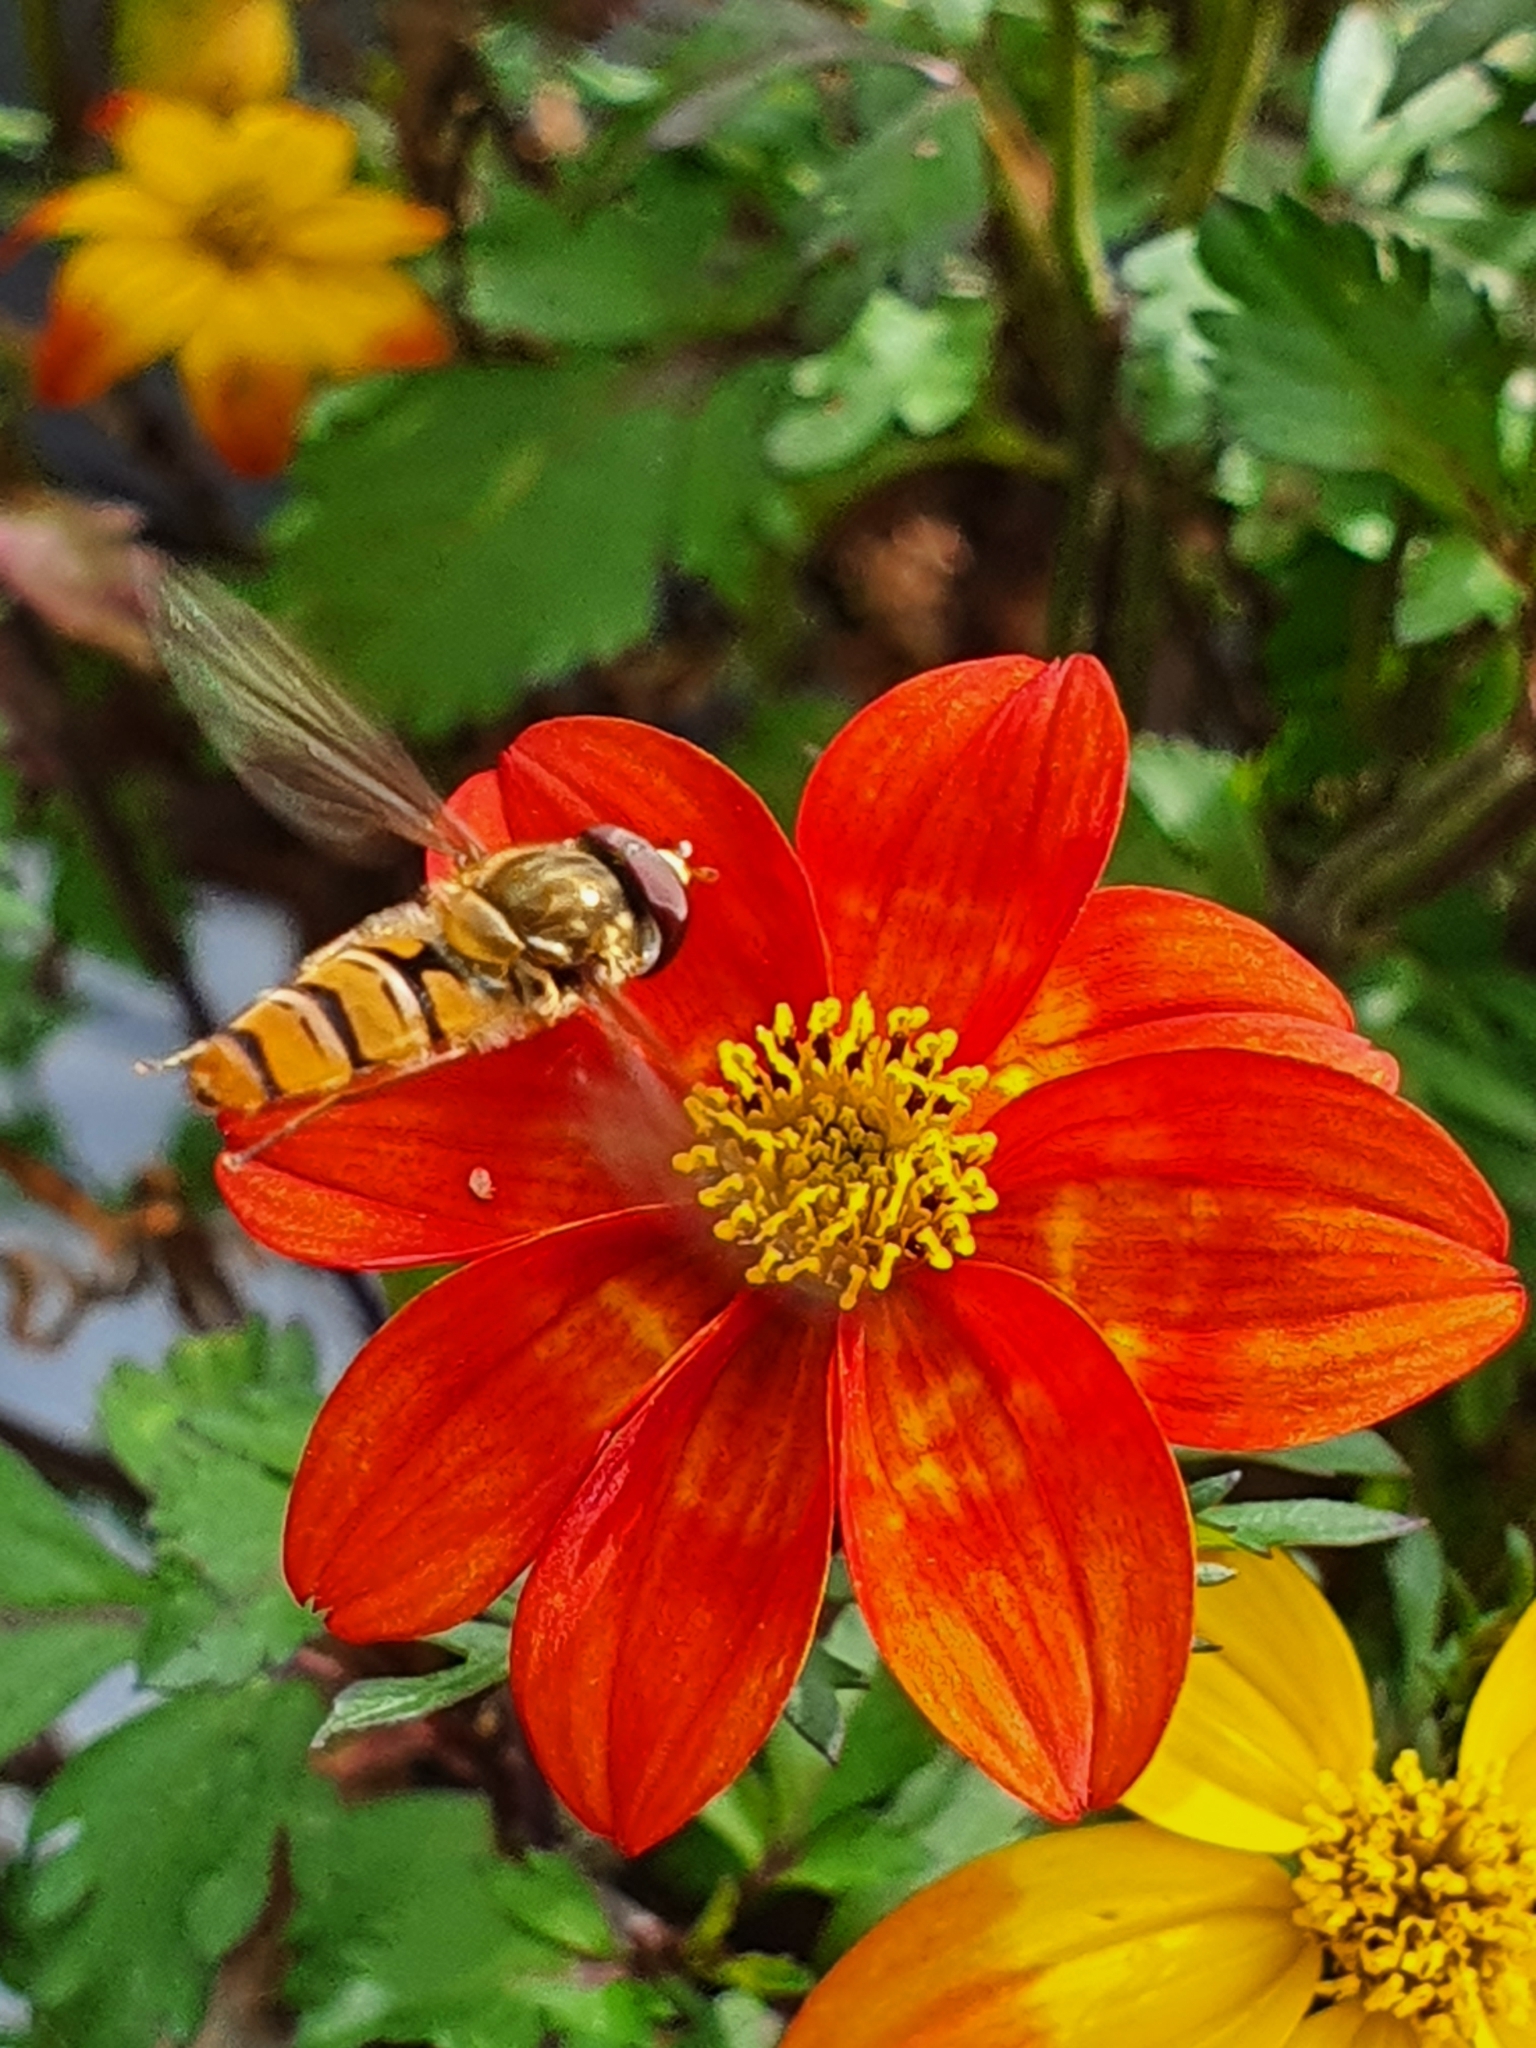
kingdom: Animalia
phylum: Arthropoda
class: Insecta
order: Diptera
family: Syrphidae
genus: Episyrphus
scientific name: Episyrphus balteatus
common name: Marmalade hoverfly
